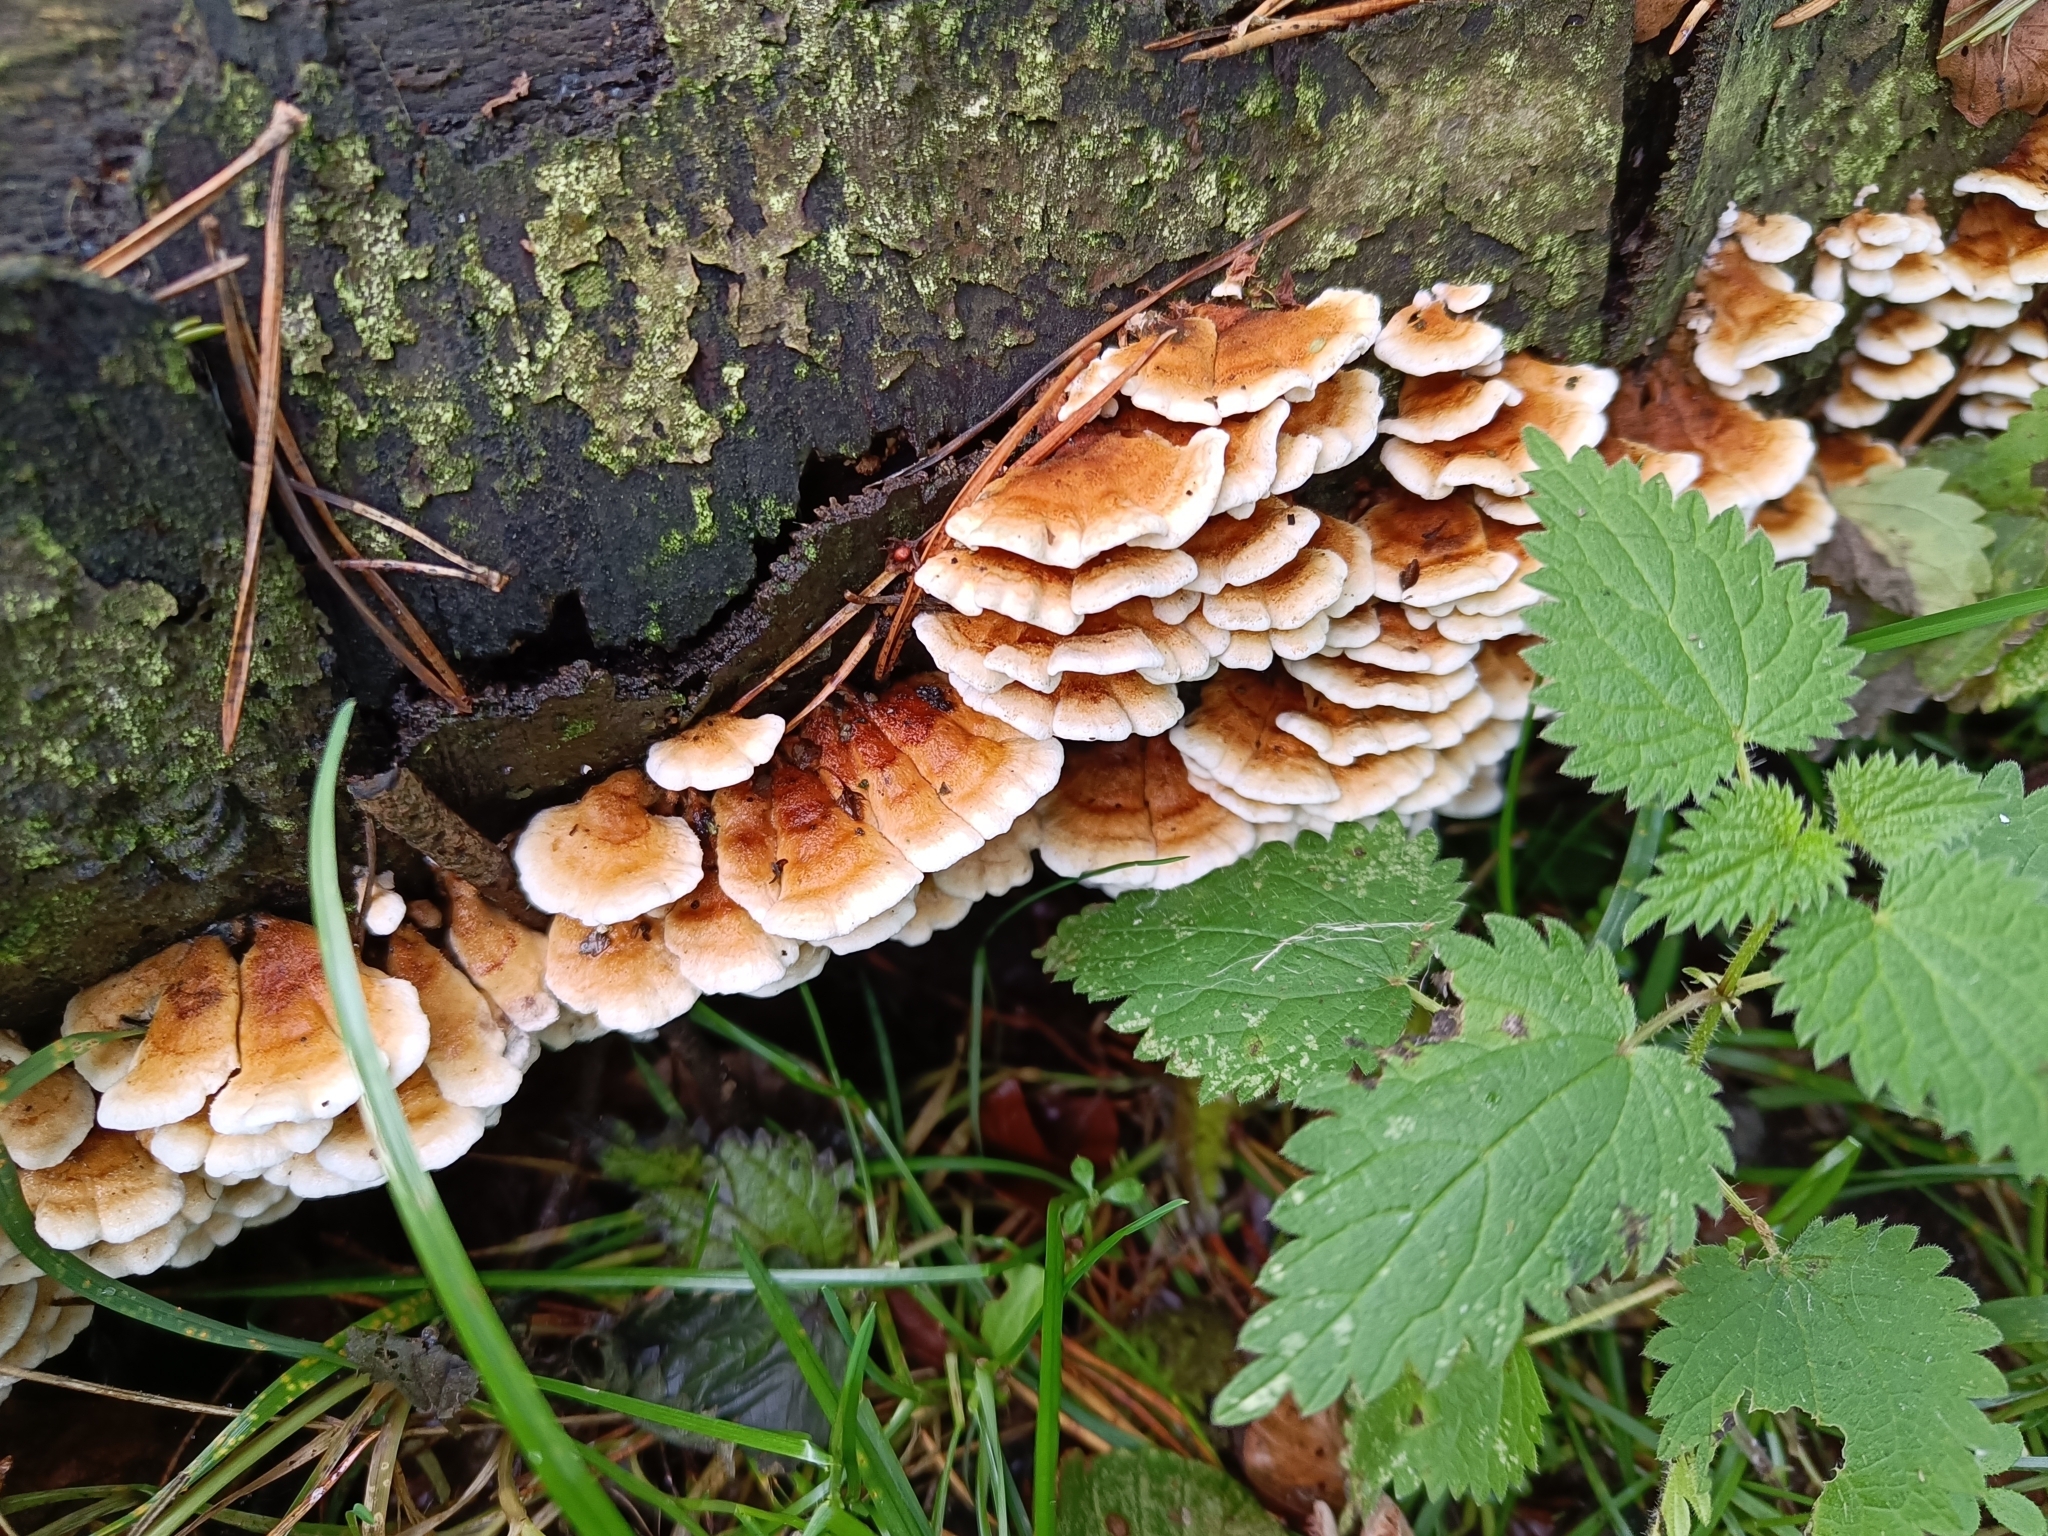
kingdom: Fungi
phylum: Basidiomycota
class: Agaricomycetes
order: Amylocorticiales
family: Amylocorticiaceae
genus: Plicaturopsis
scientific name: Plicaturopsis crispa
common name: Crimped gill
